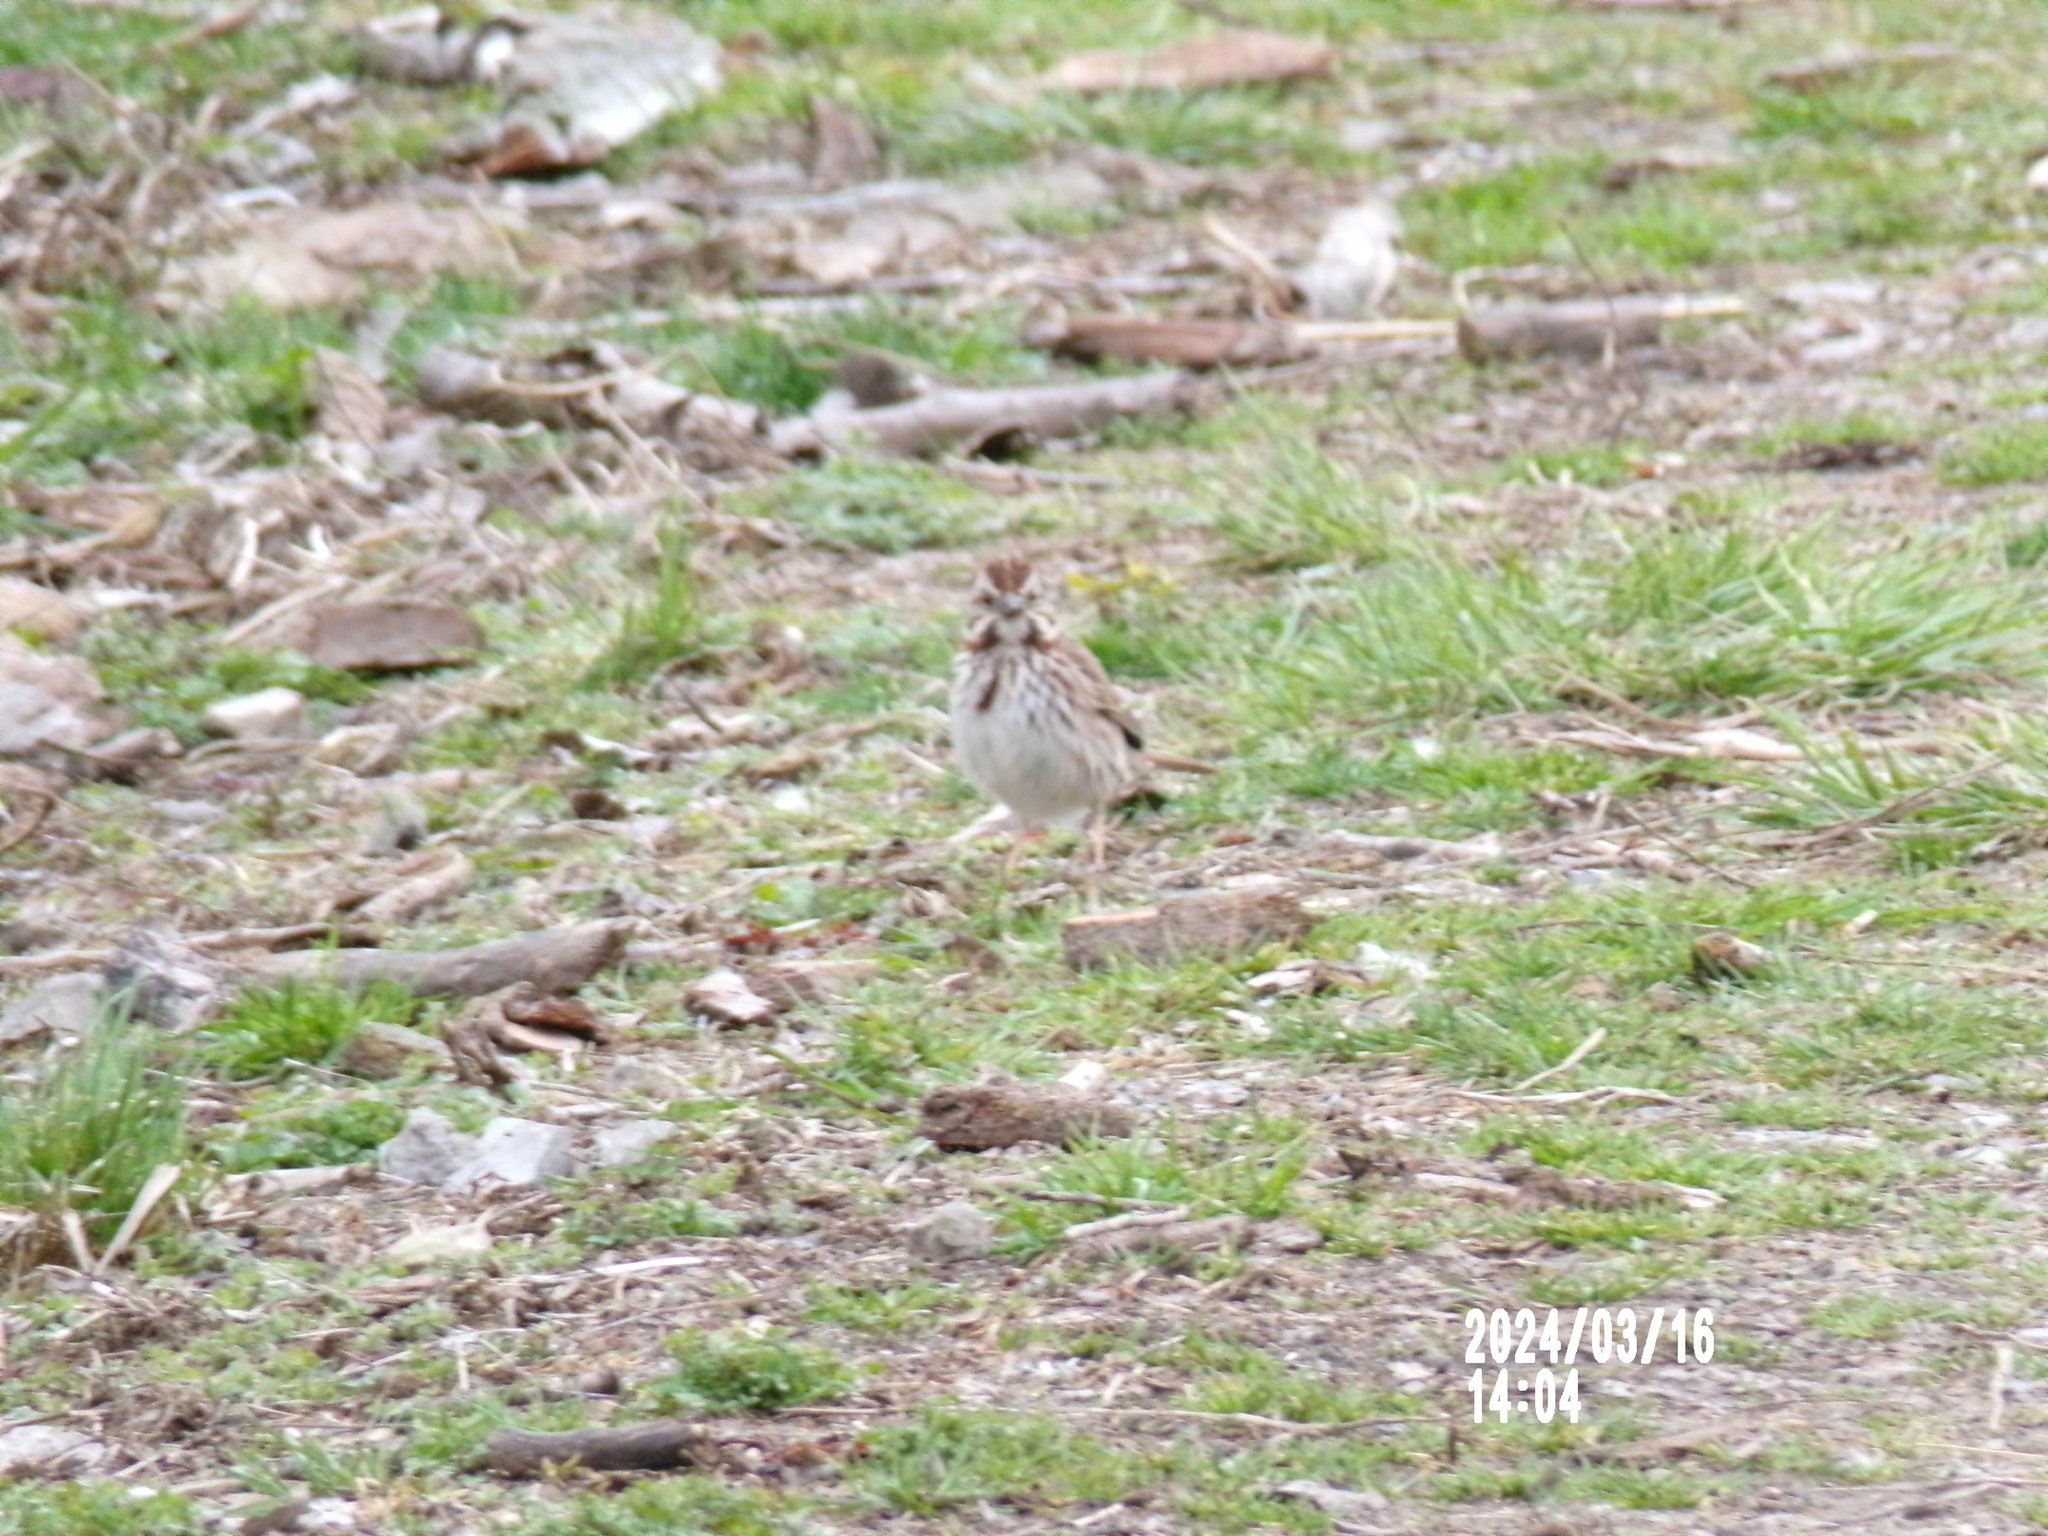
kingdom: Animalia
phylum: Chordata
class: Aves
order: Passeriformes
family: Passerellidae
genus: Melospiza
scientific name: Melospiza melodia
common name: Song sparrow
